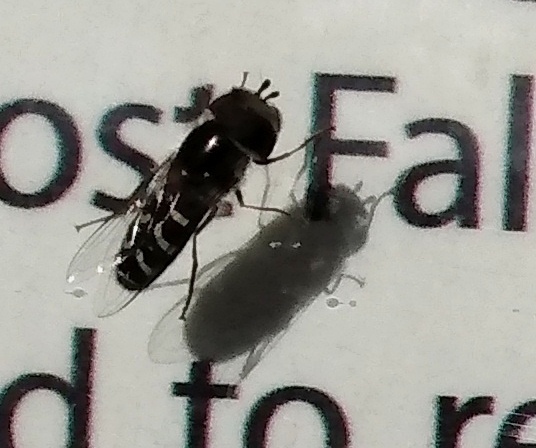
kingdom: Animalia
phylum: Arthropoda
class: Insecta
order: Diptera
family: Syrphidae
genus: Scaeva
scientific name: Scaeva affinis
